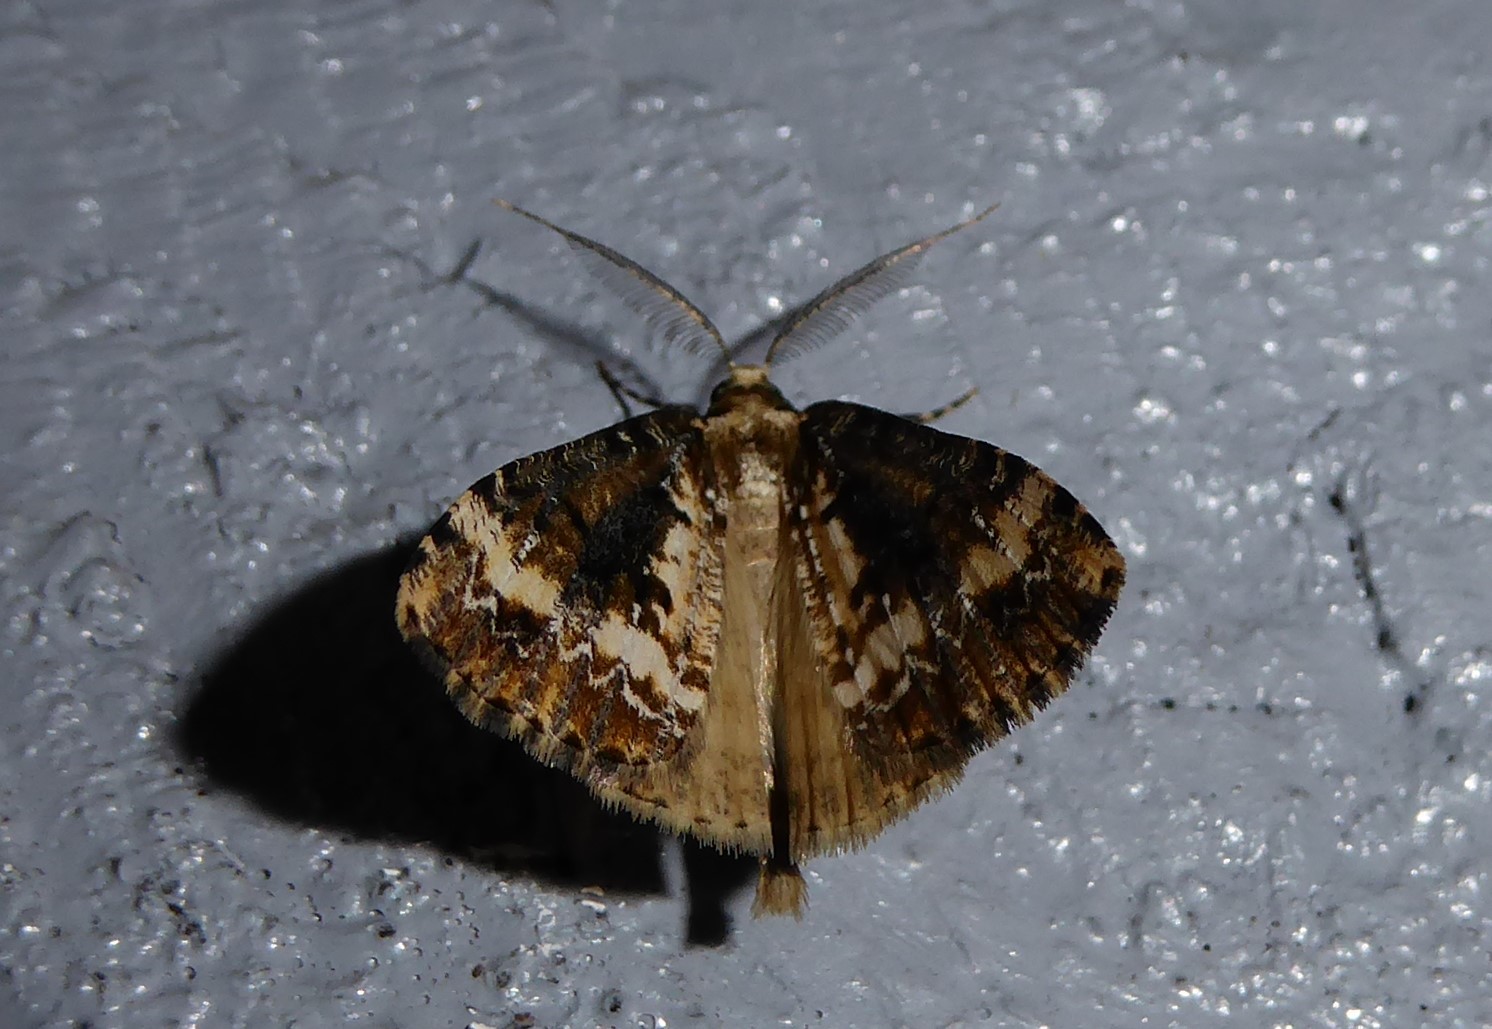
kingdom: Animalia
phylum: Arthropoda
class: Insecta
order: Lepidoptera
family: Geometridae
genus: Pseudocoremia
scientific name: Pseudocoremia leucelaea
